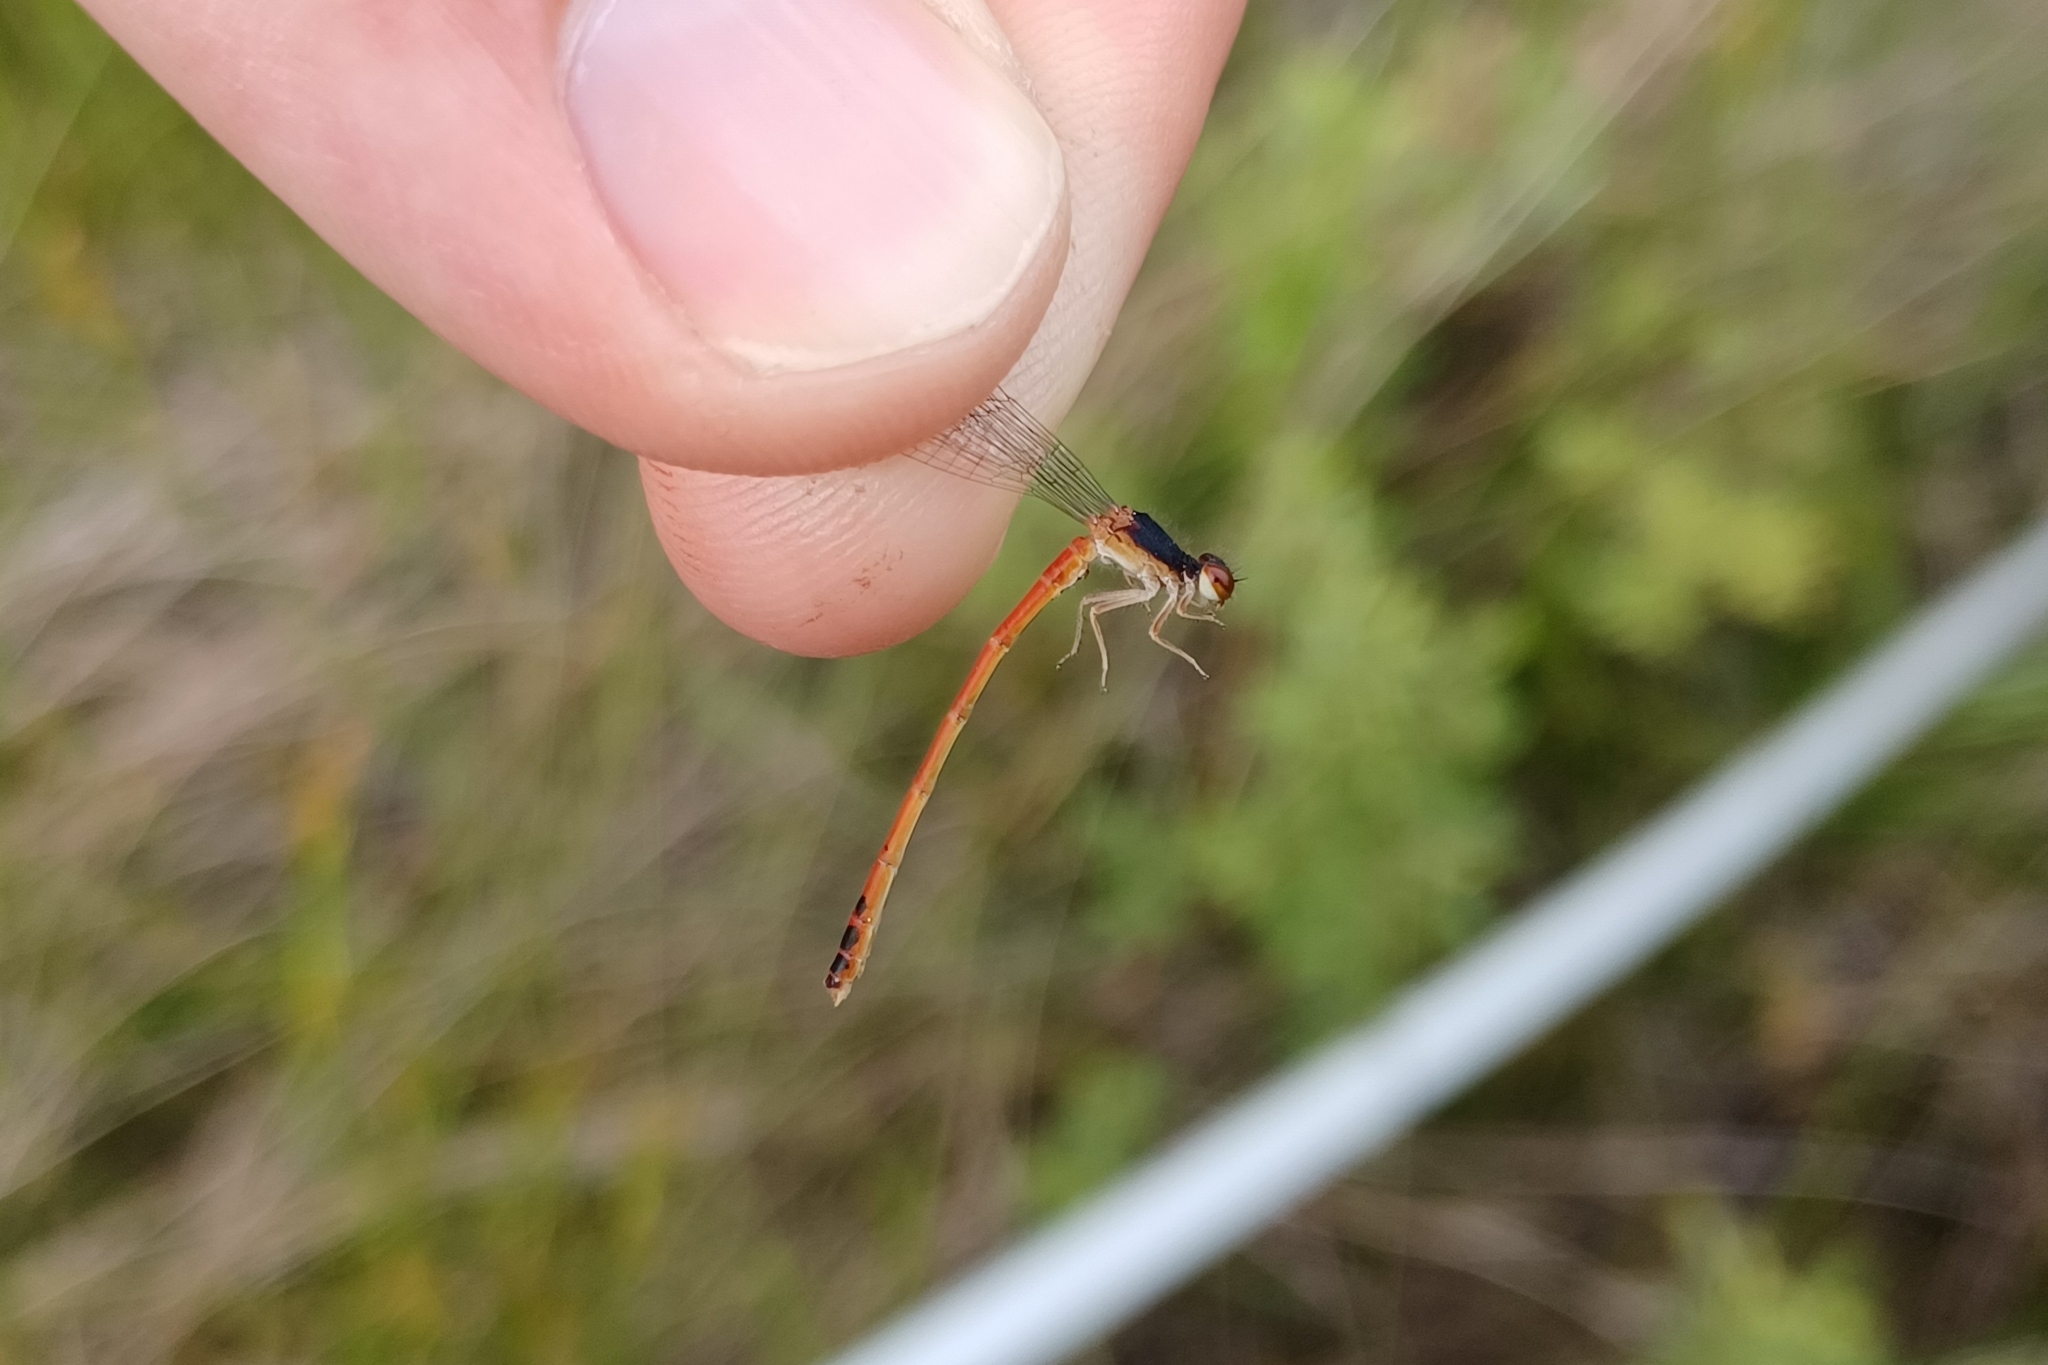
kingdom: Animalia
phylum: Arthropoda
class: Insecta
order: Odonata
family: Coenagrionidae
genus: Amphiagrion
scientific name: Amphiagrion saucium
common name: Eastern red damsel
